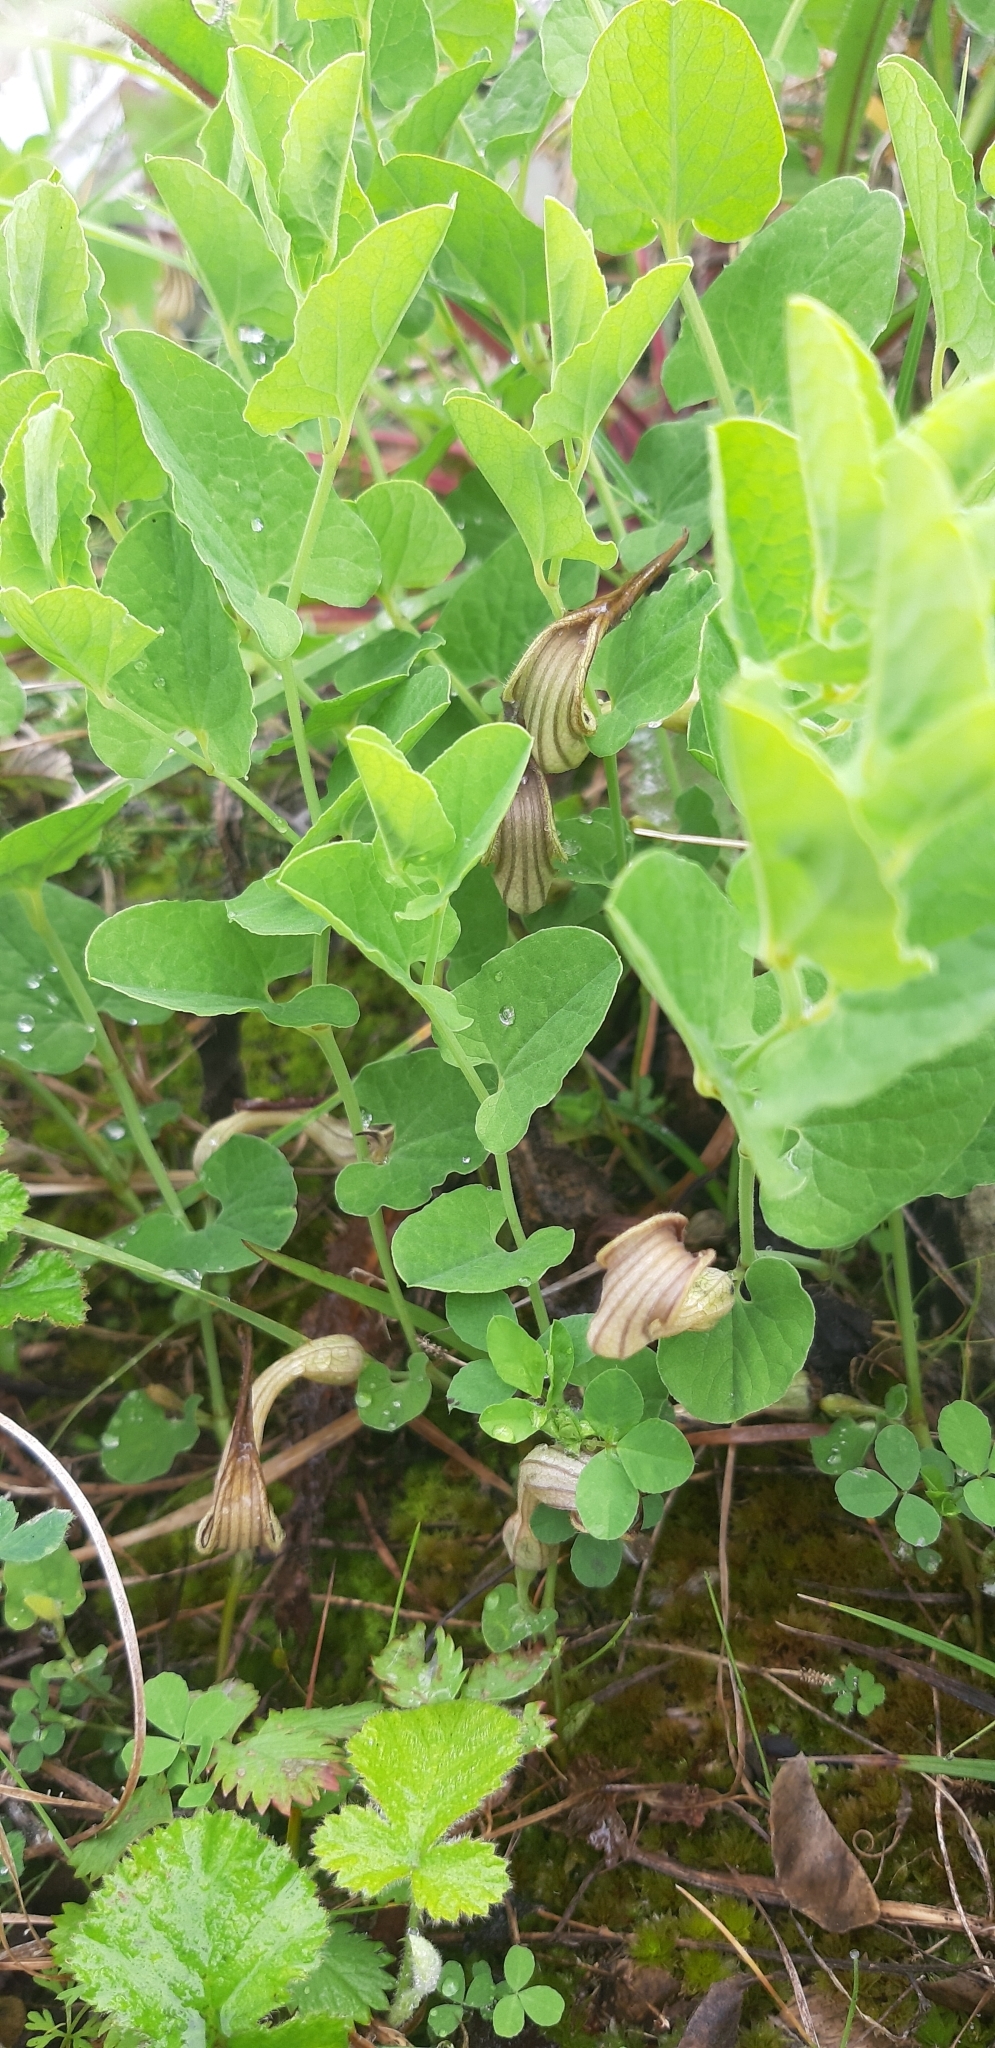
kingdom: Plantae
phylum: Tracheophyta
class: Magnoliopsida
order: Piperales
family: Aristolochiaceae
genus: Aristolochia
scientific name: Aristolochia clusii
